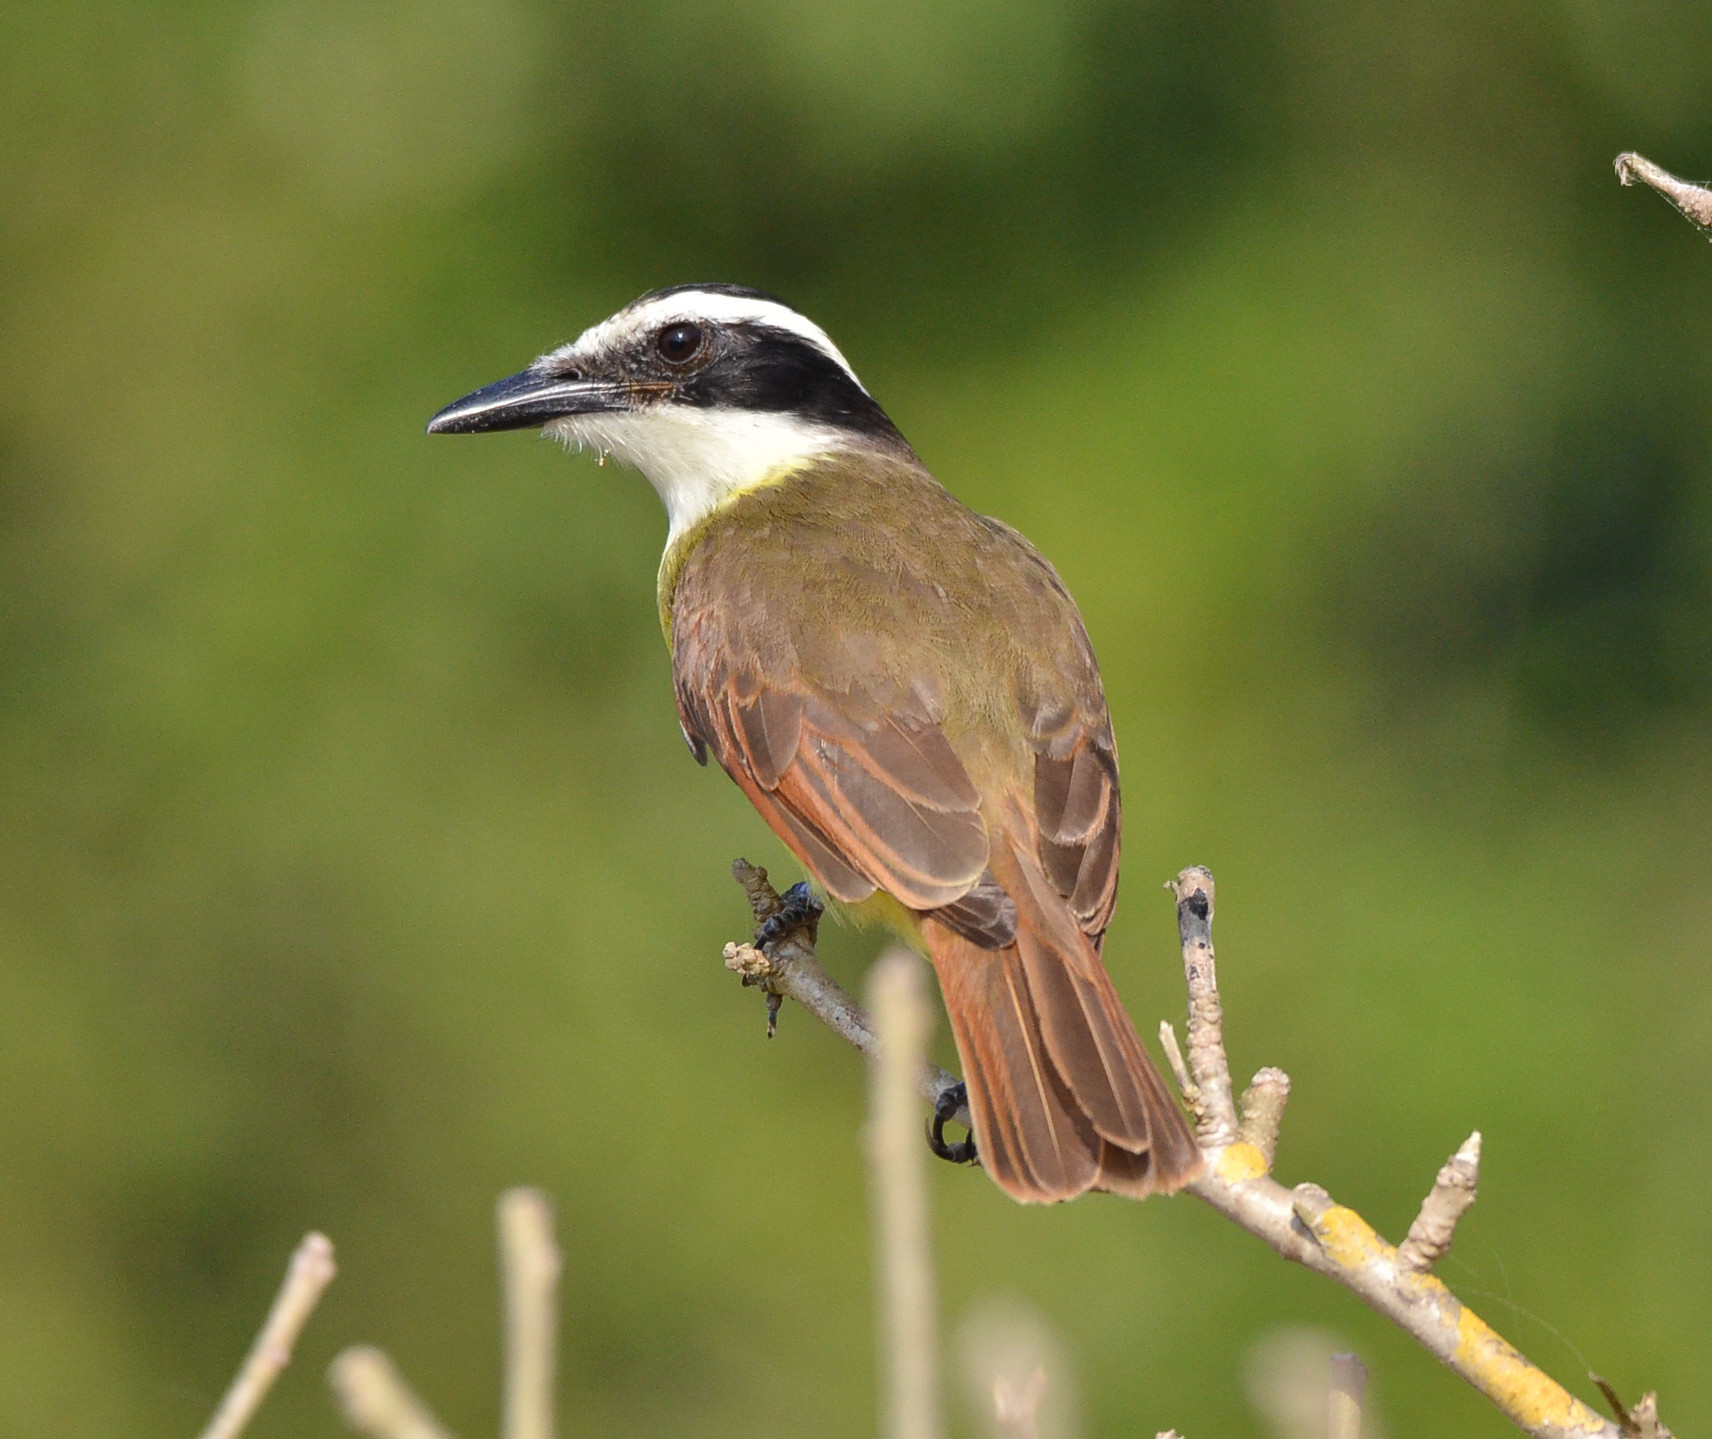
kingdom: Animalia
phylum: Chordata
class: Aves
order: Passeriformes
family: Tyrannidae
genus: Pitangus
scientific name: Pitangus sulphuratus
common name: Great kiskadee
